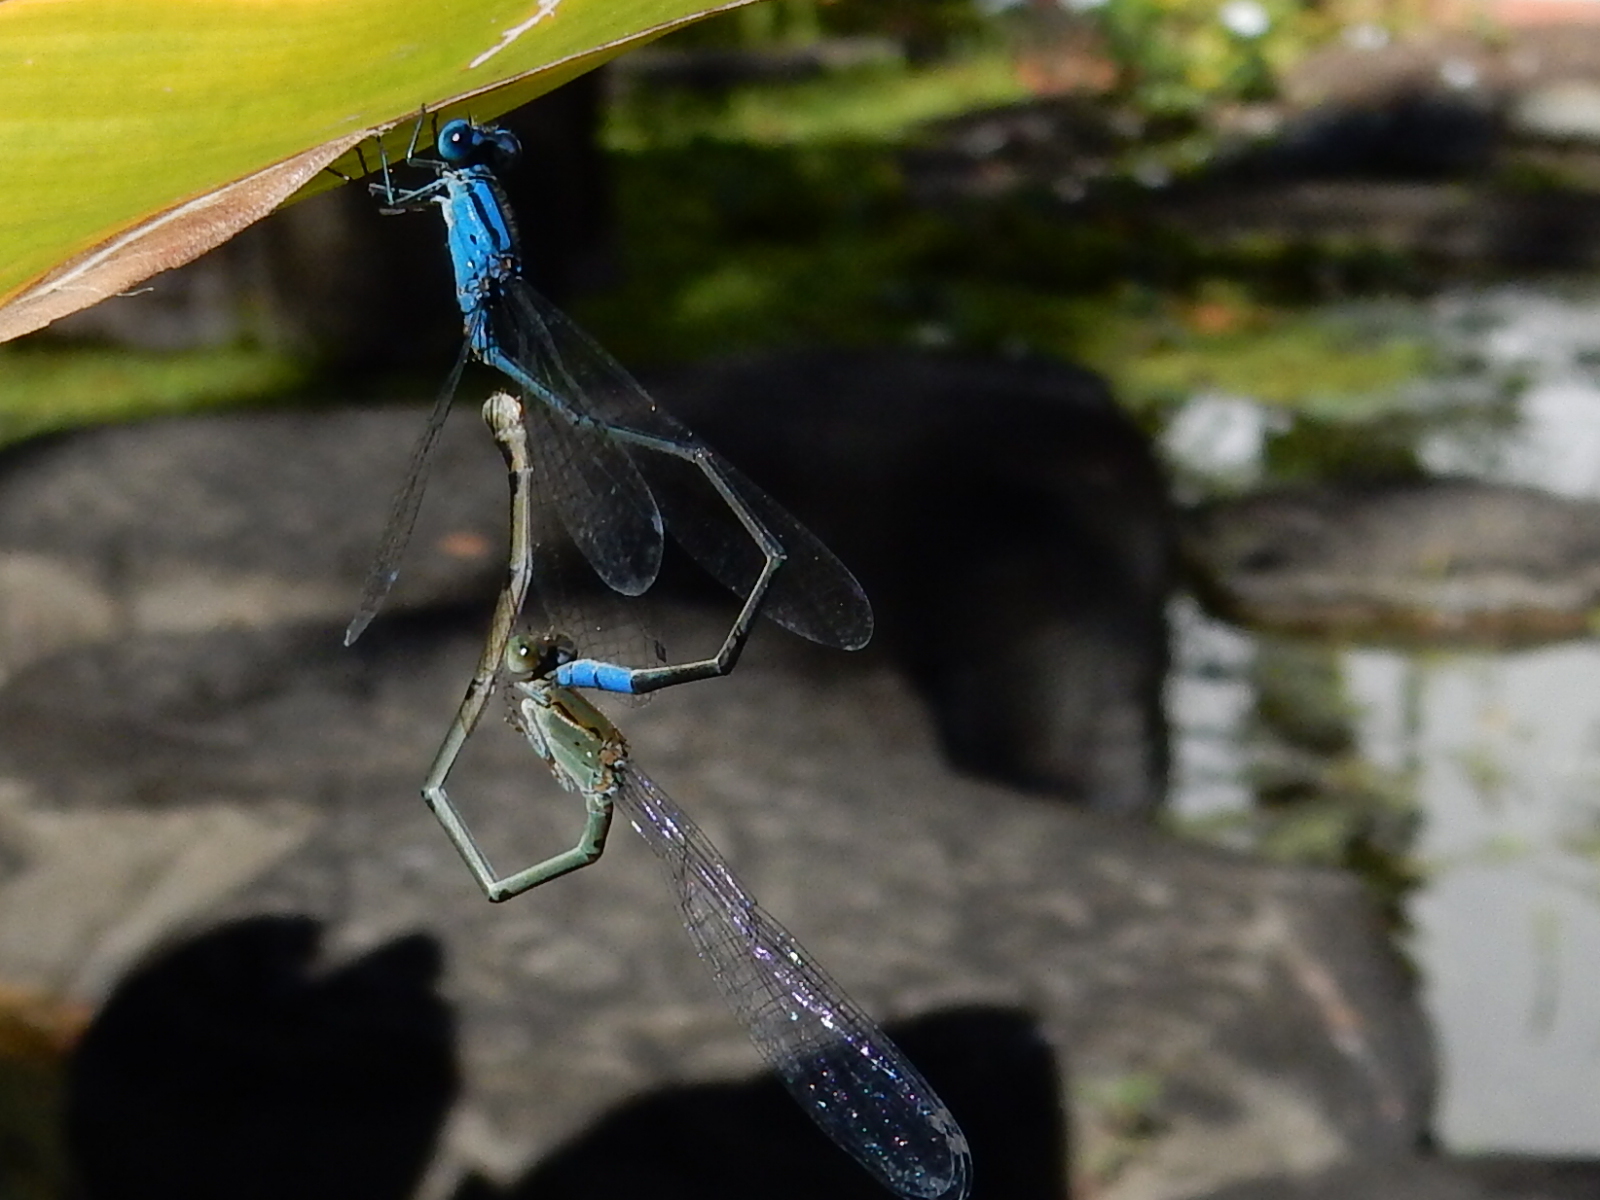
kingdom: Animalia
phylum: Arthropoda
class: Insecta
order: Odonata
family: Coenagrionidae
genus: Pseudagrion
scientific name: Pseudagrion microcephalum
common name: Blue riverdamsel
